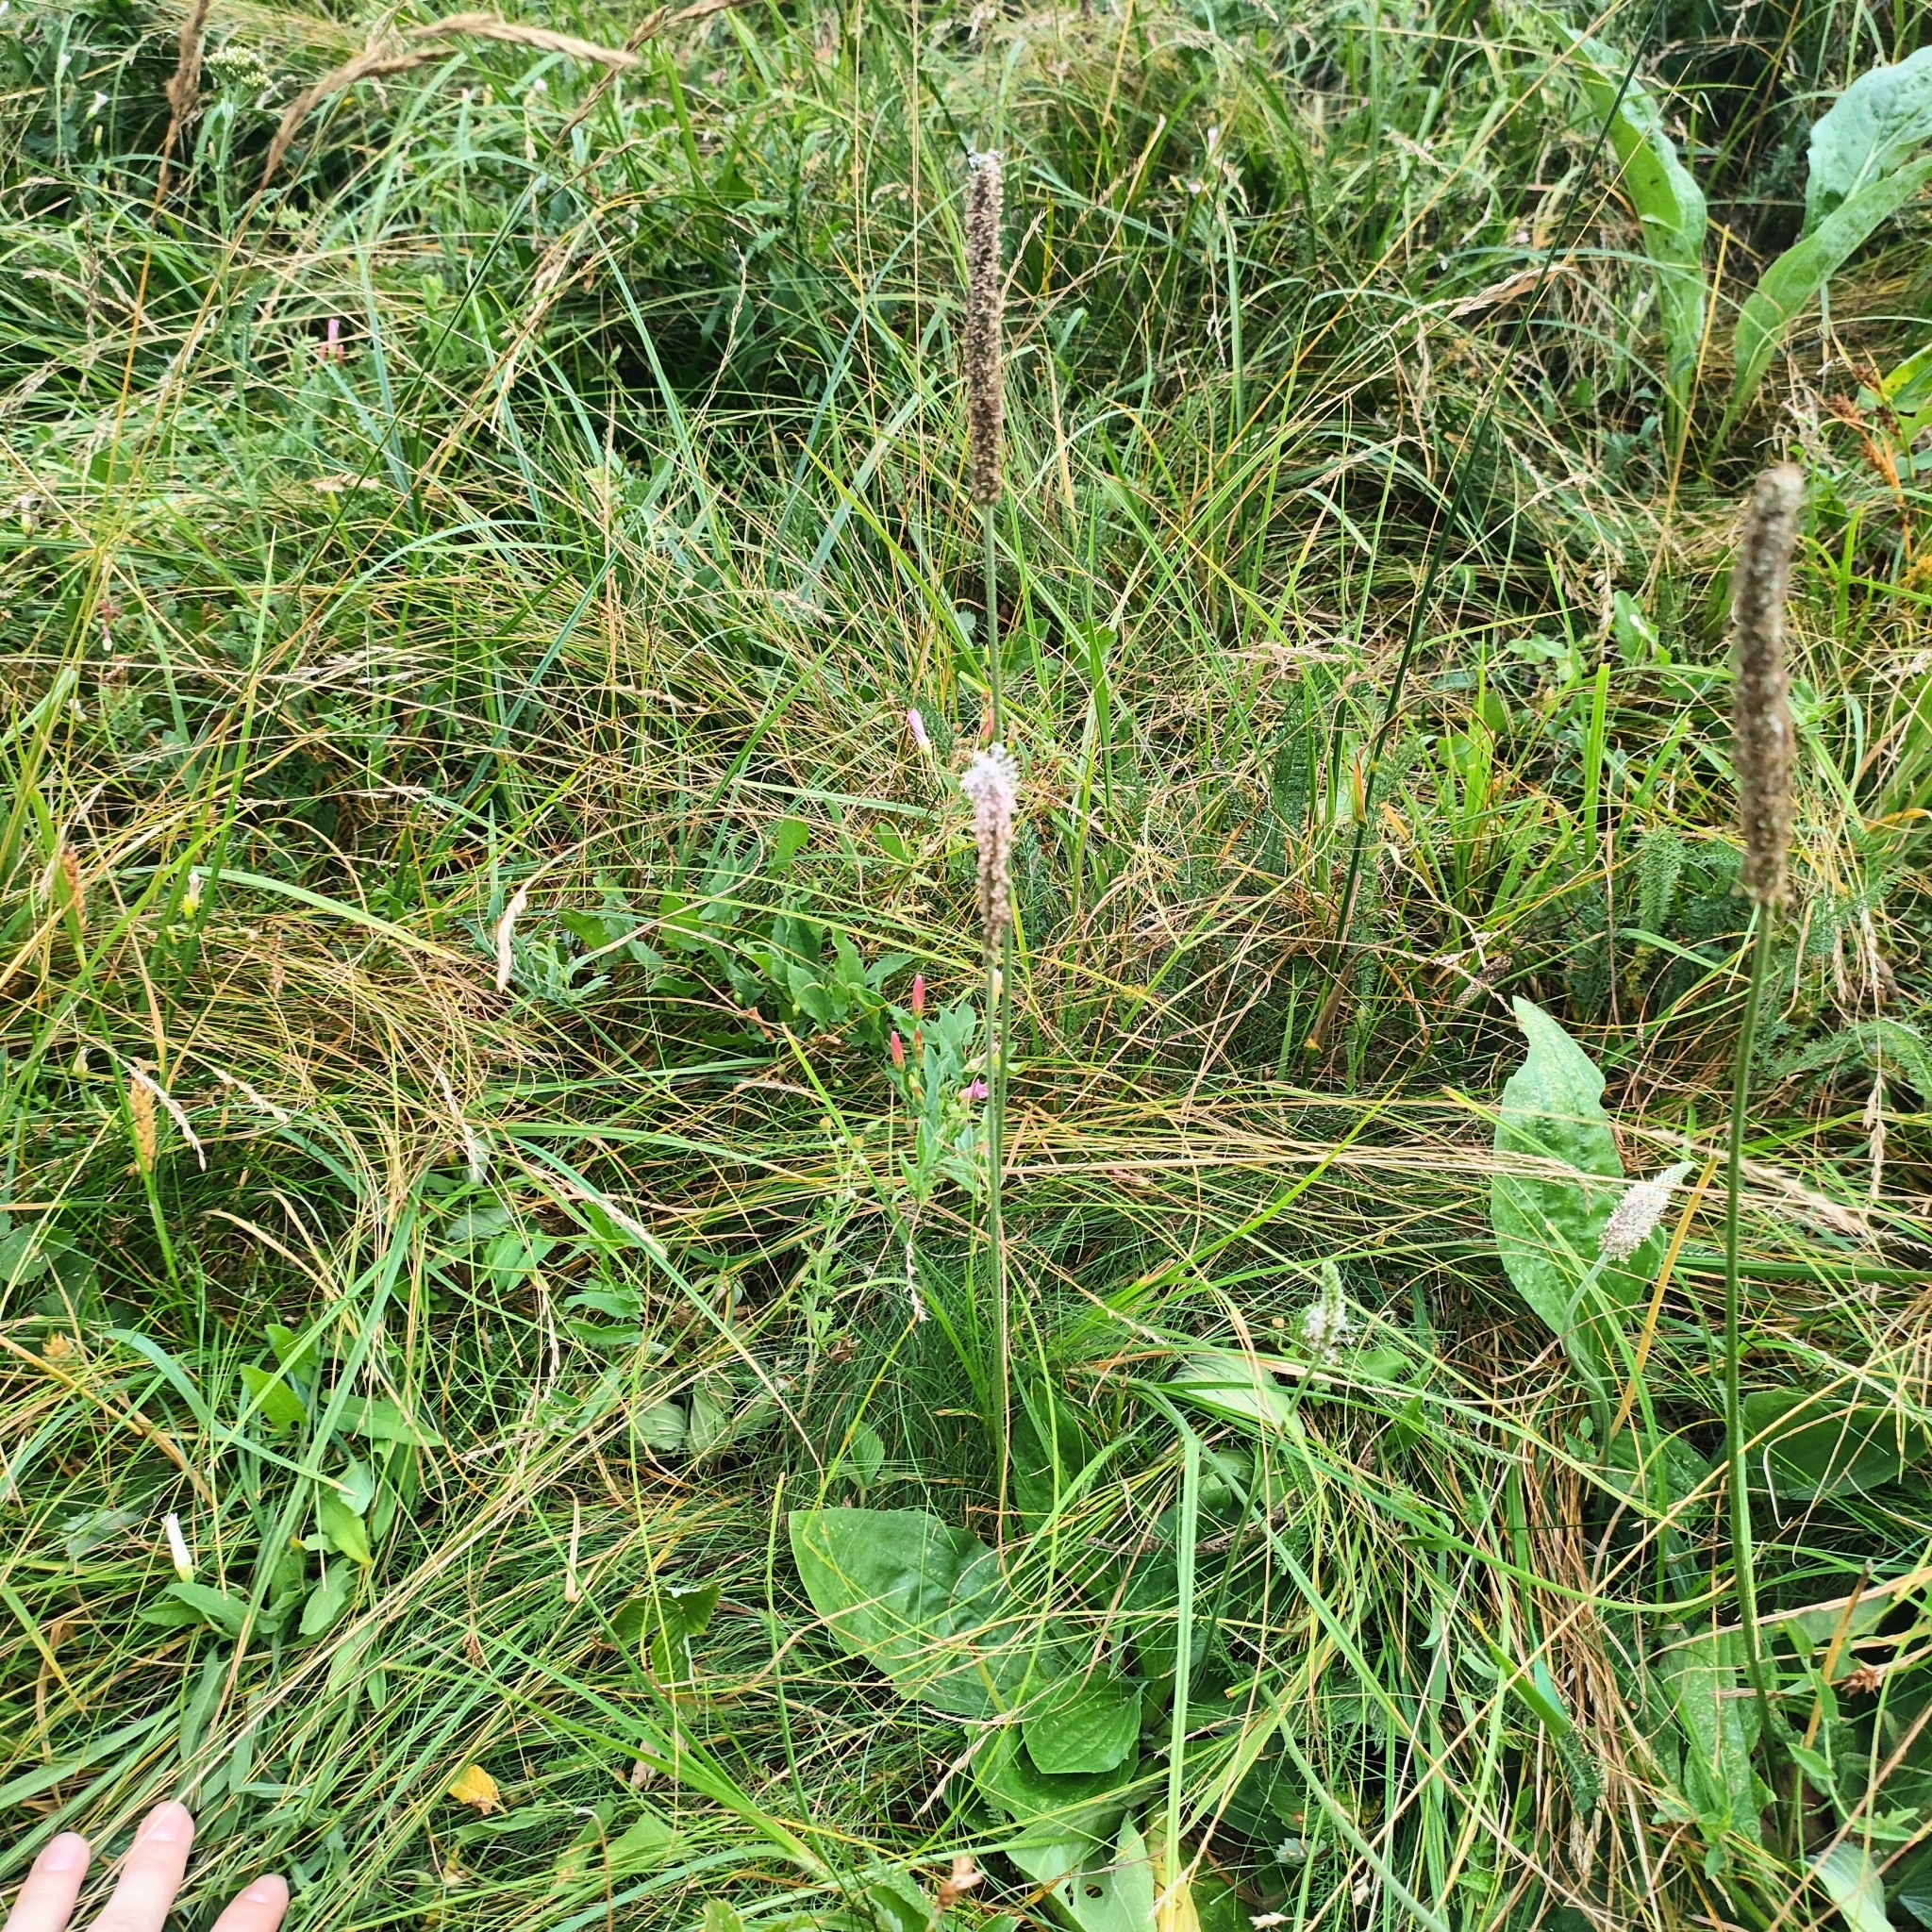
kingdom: Plantae
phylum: Tracheophyta
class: Magnoliopsida
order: Lamiales
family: Plantaginaceae
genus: Plantago
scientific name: Plantago media
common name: Hoary plantain
